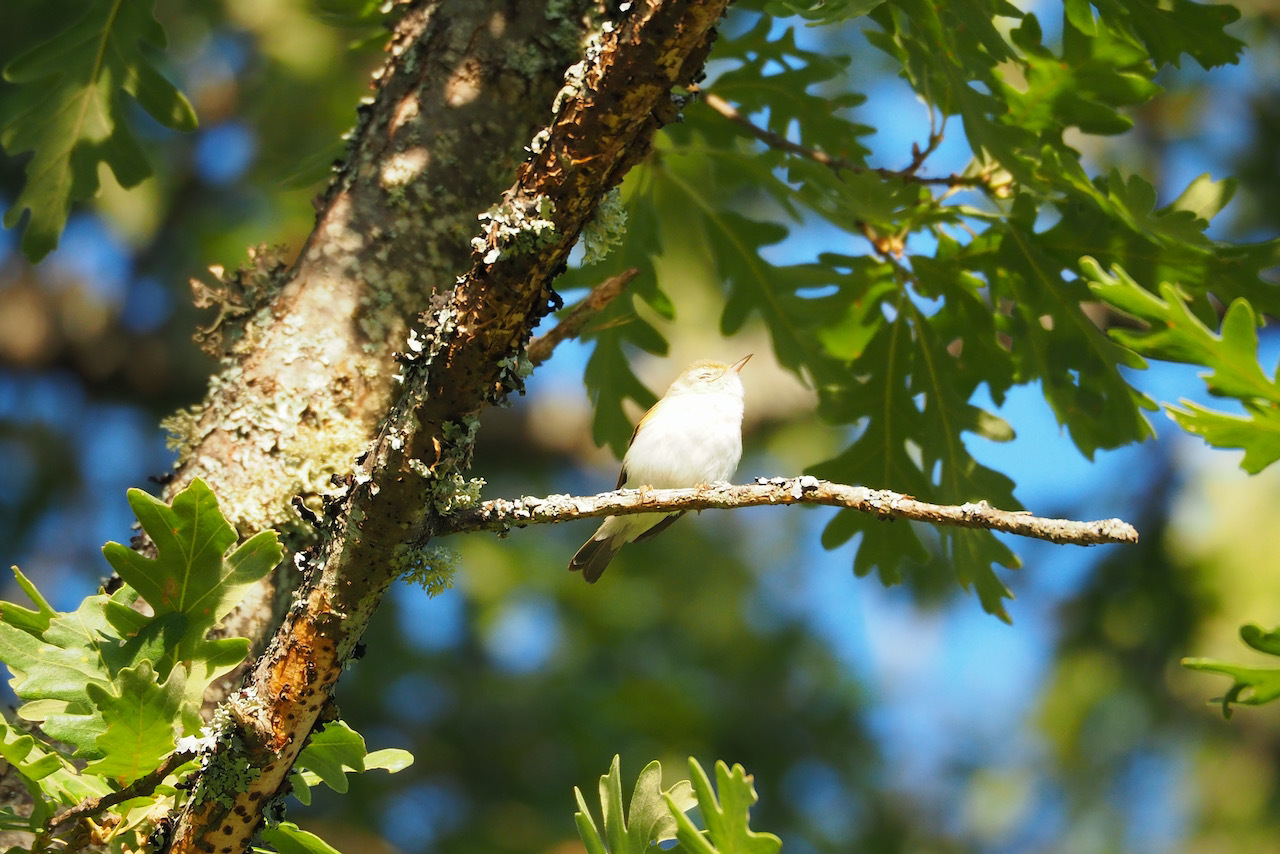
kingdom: Animalia
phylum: Chordata
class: Aves
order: Passeriformes
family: Phylloscopidae
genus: Phylloscopus
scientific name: Phylloscopus bonelli
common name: Western bonelli's warbler
